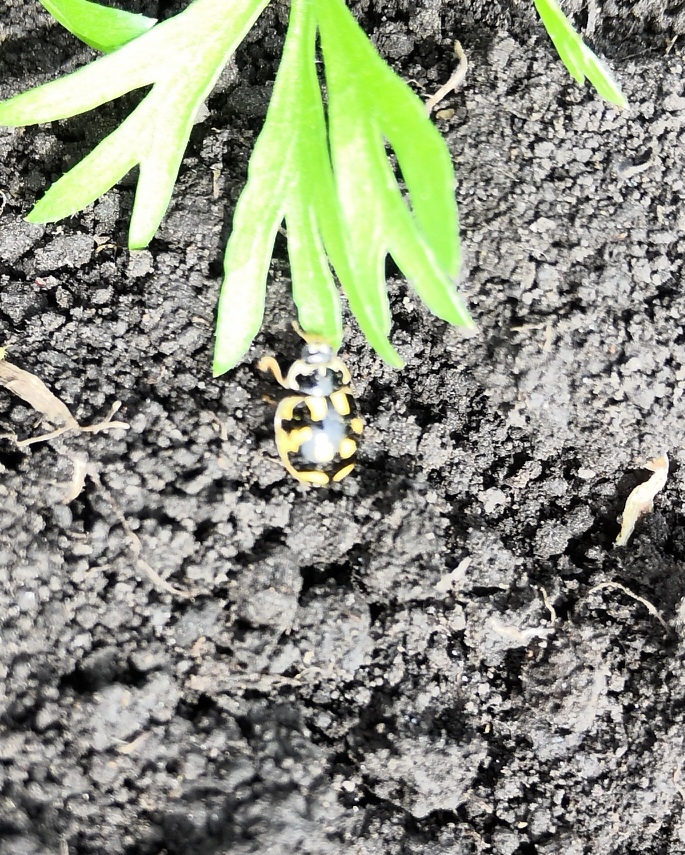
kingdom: Animalia
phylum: Arthropoda
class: Insecta
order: Coleoptera
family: Coccinellidae
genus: Propylaea
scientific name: Propylaea quatuordecimpunctata
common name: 14-spotted ladybird beetle
